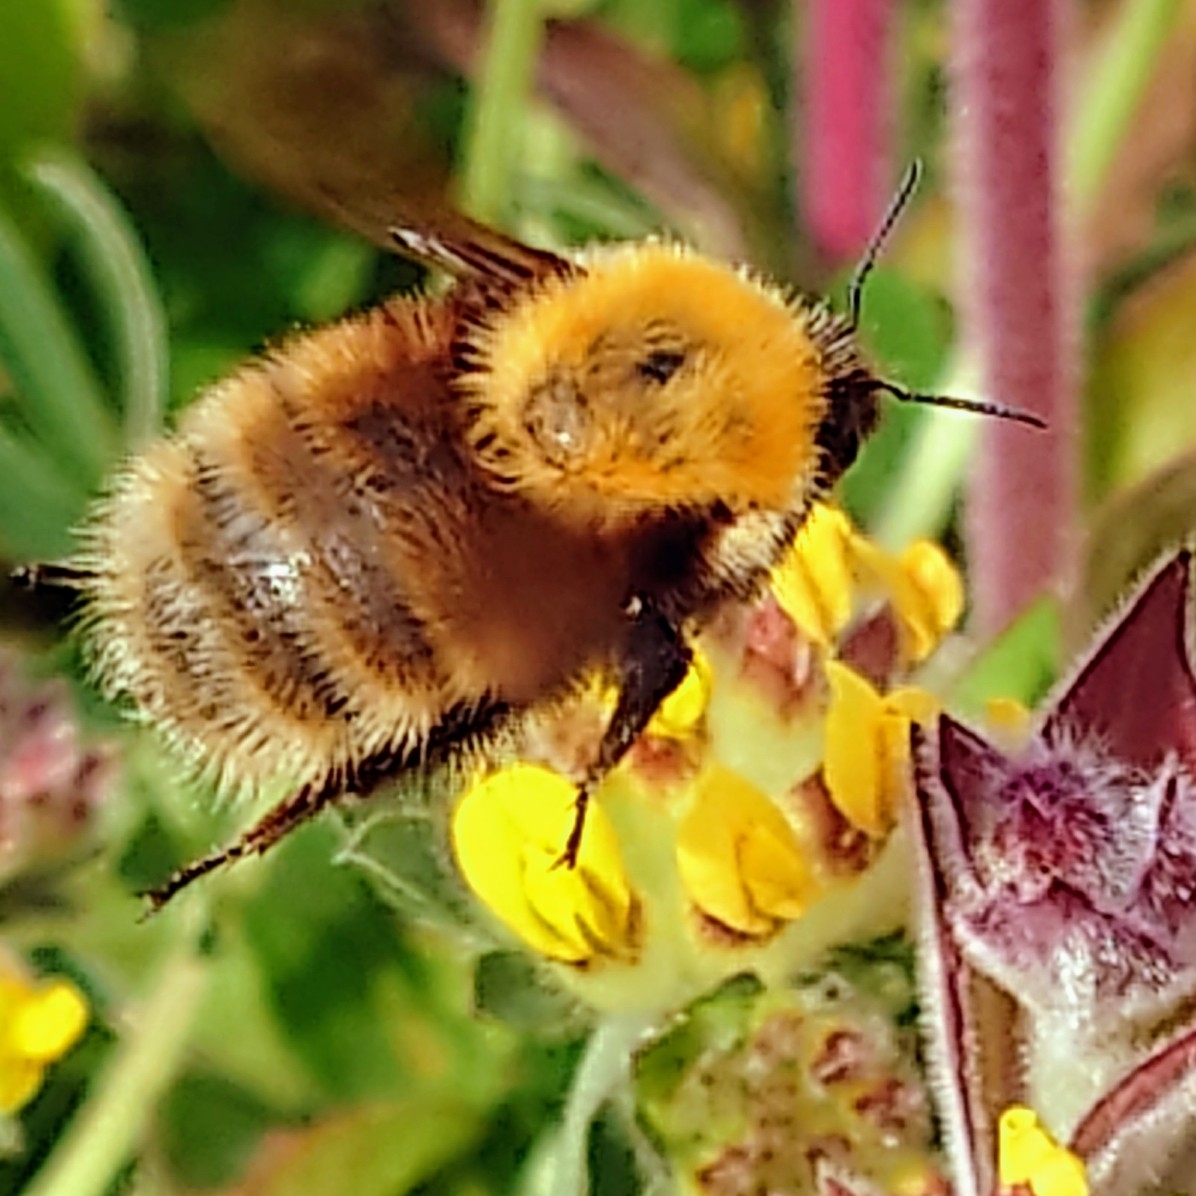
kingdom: Animalia
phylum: Arthropoda
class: Insecta
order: Hymenoptera
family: Apidae
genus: Bombus
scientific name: Bombus muscorum
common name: Moss carder-bee
